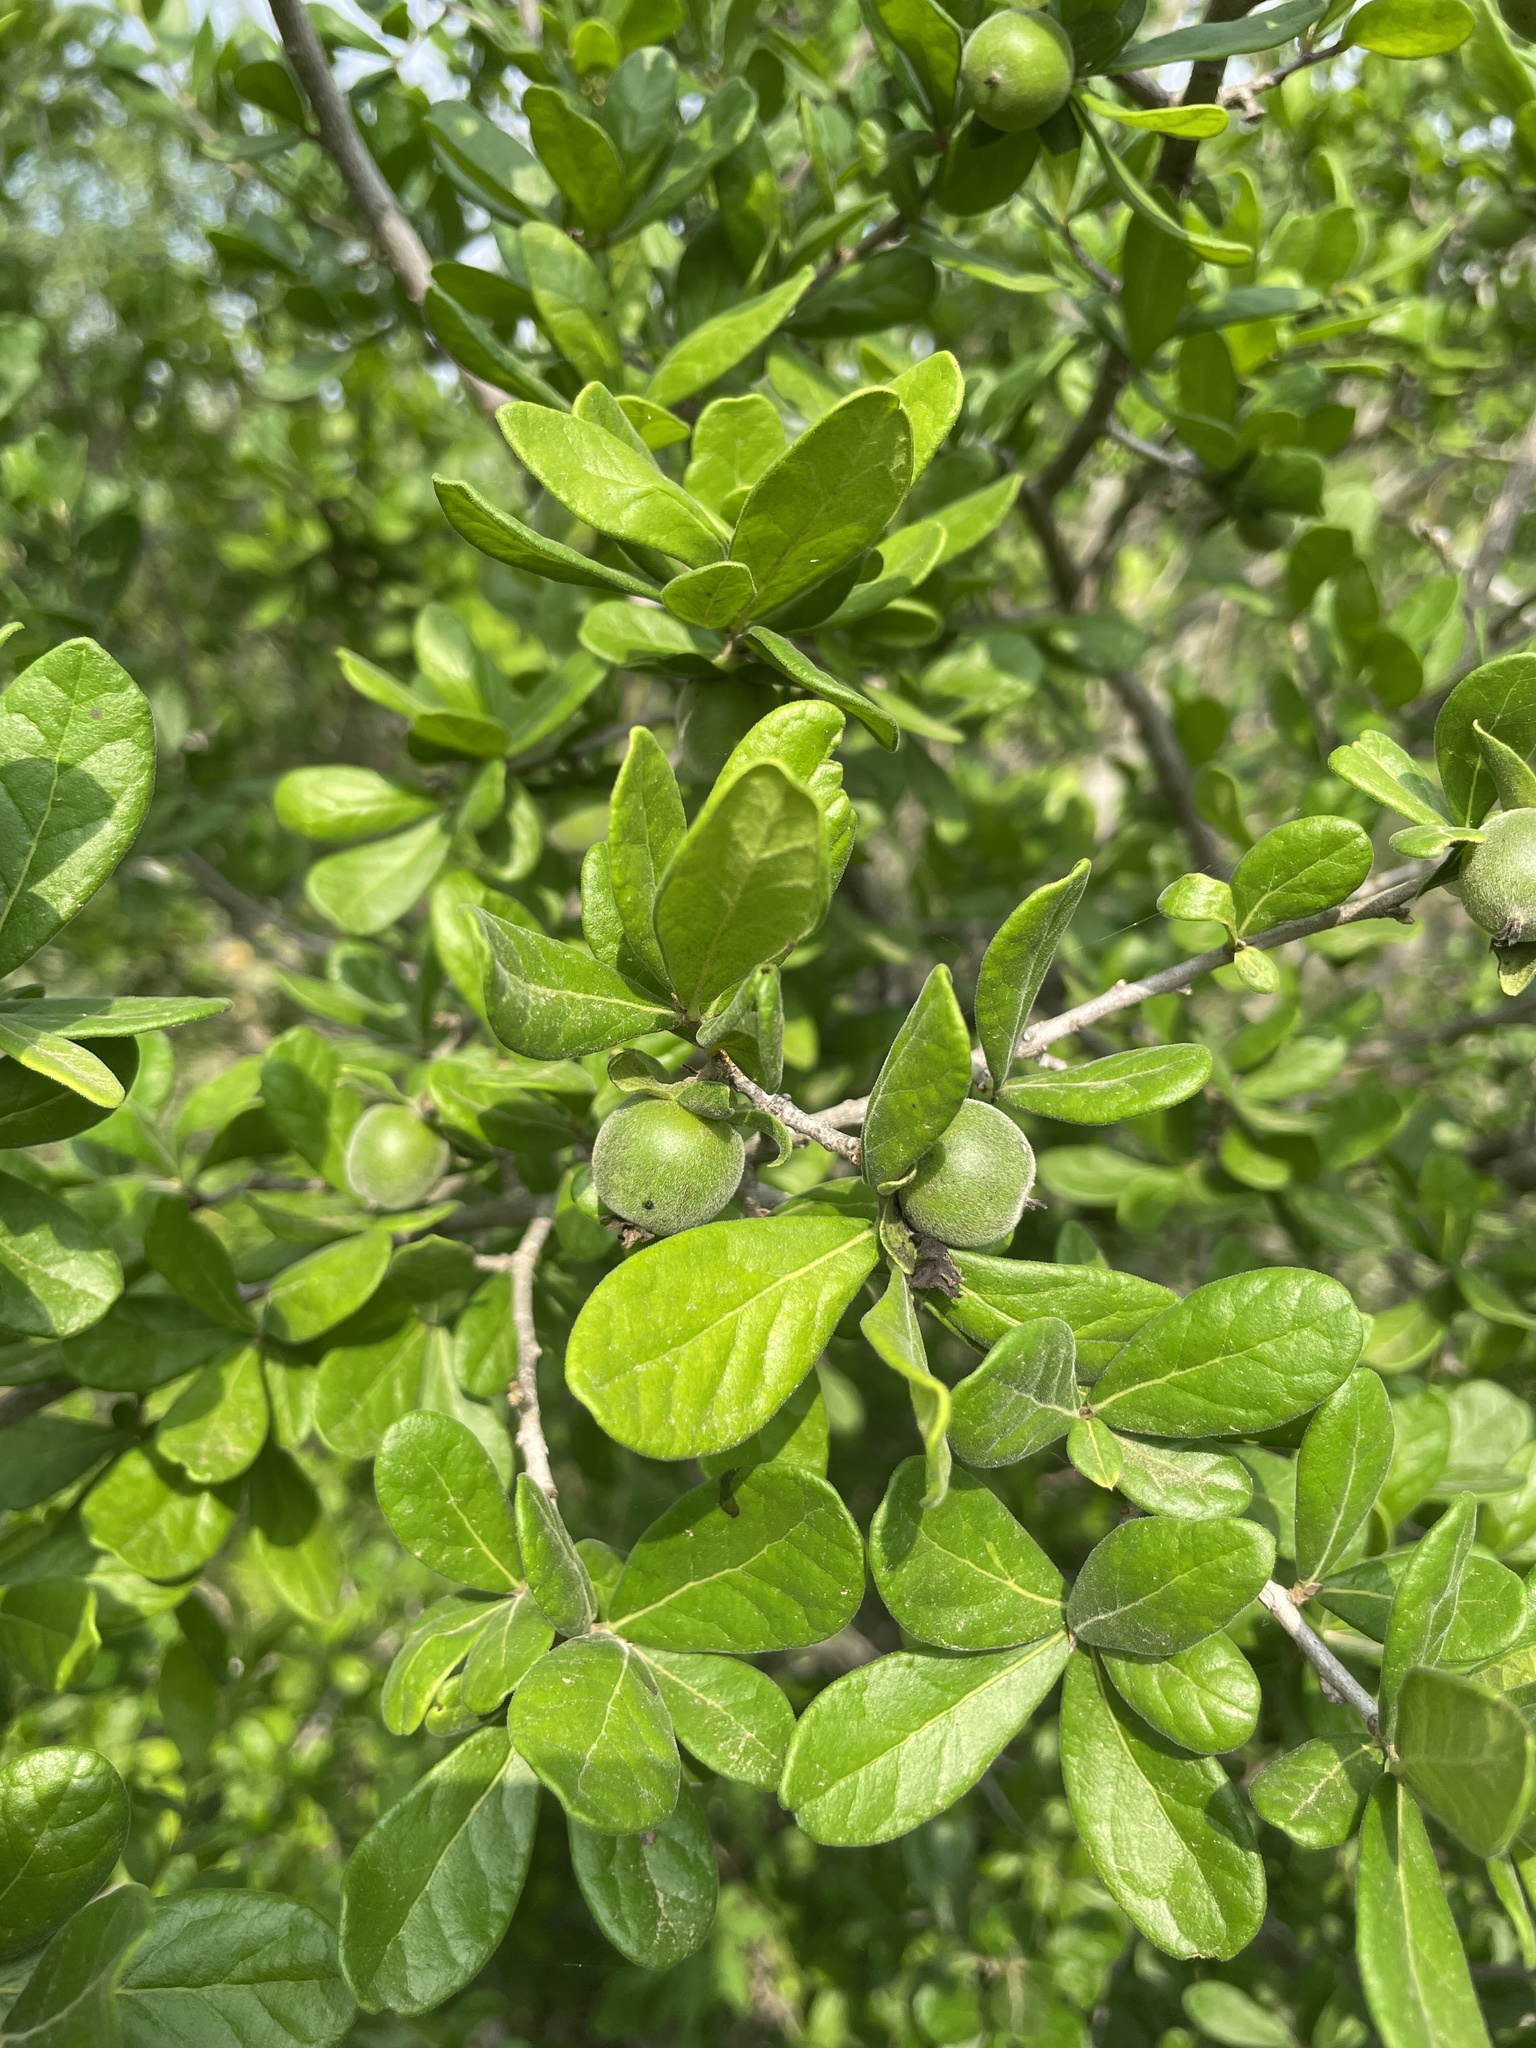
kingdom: Plantae
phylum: Tracheophyta
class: Magnoliopsida
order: Ericales
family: Ebenaceae
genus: Diospyros
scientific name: Diospyros texana
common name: Texas persimmon
